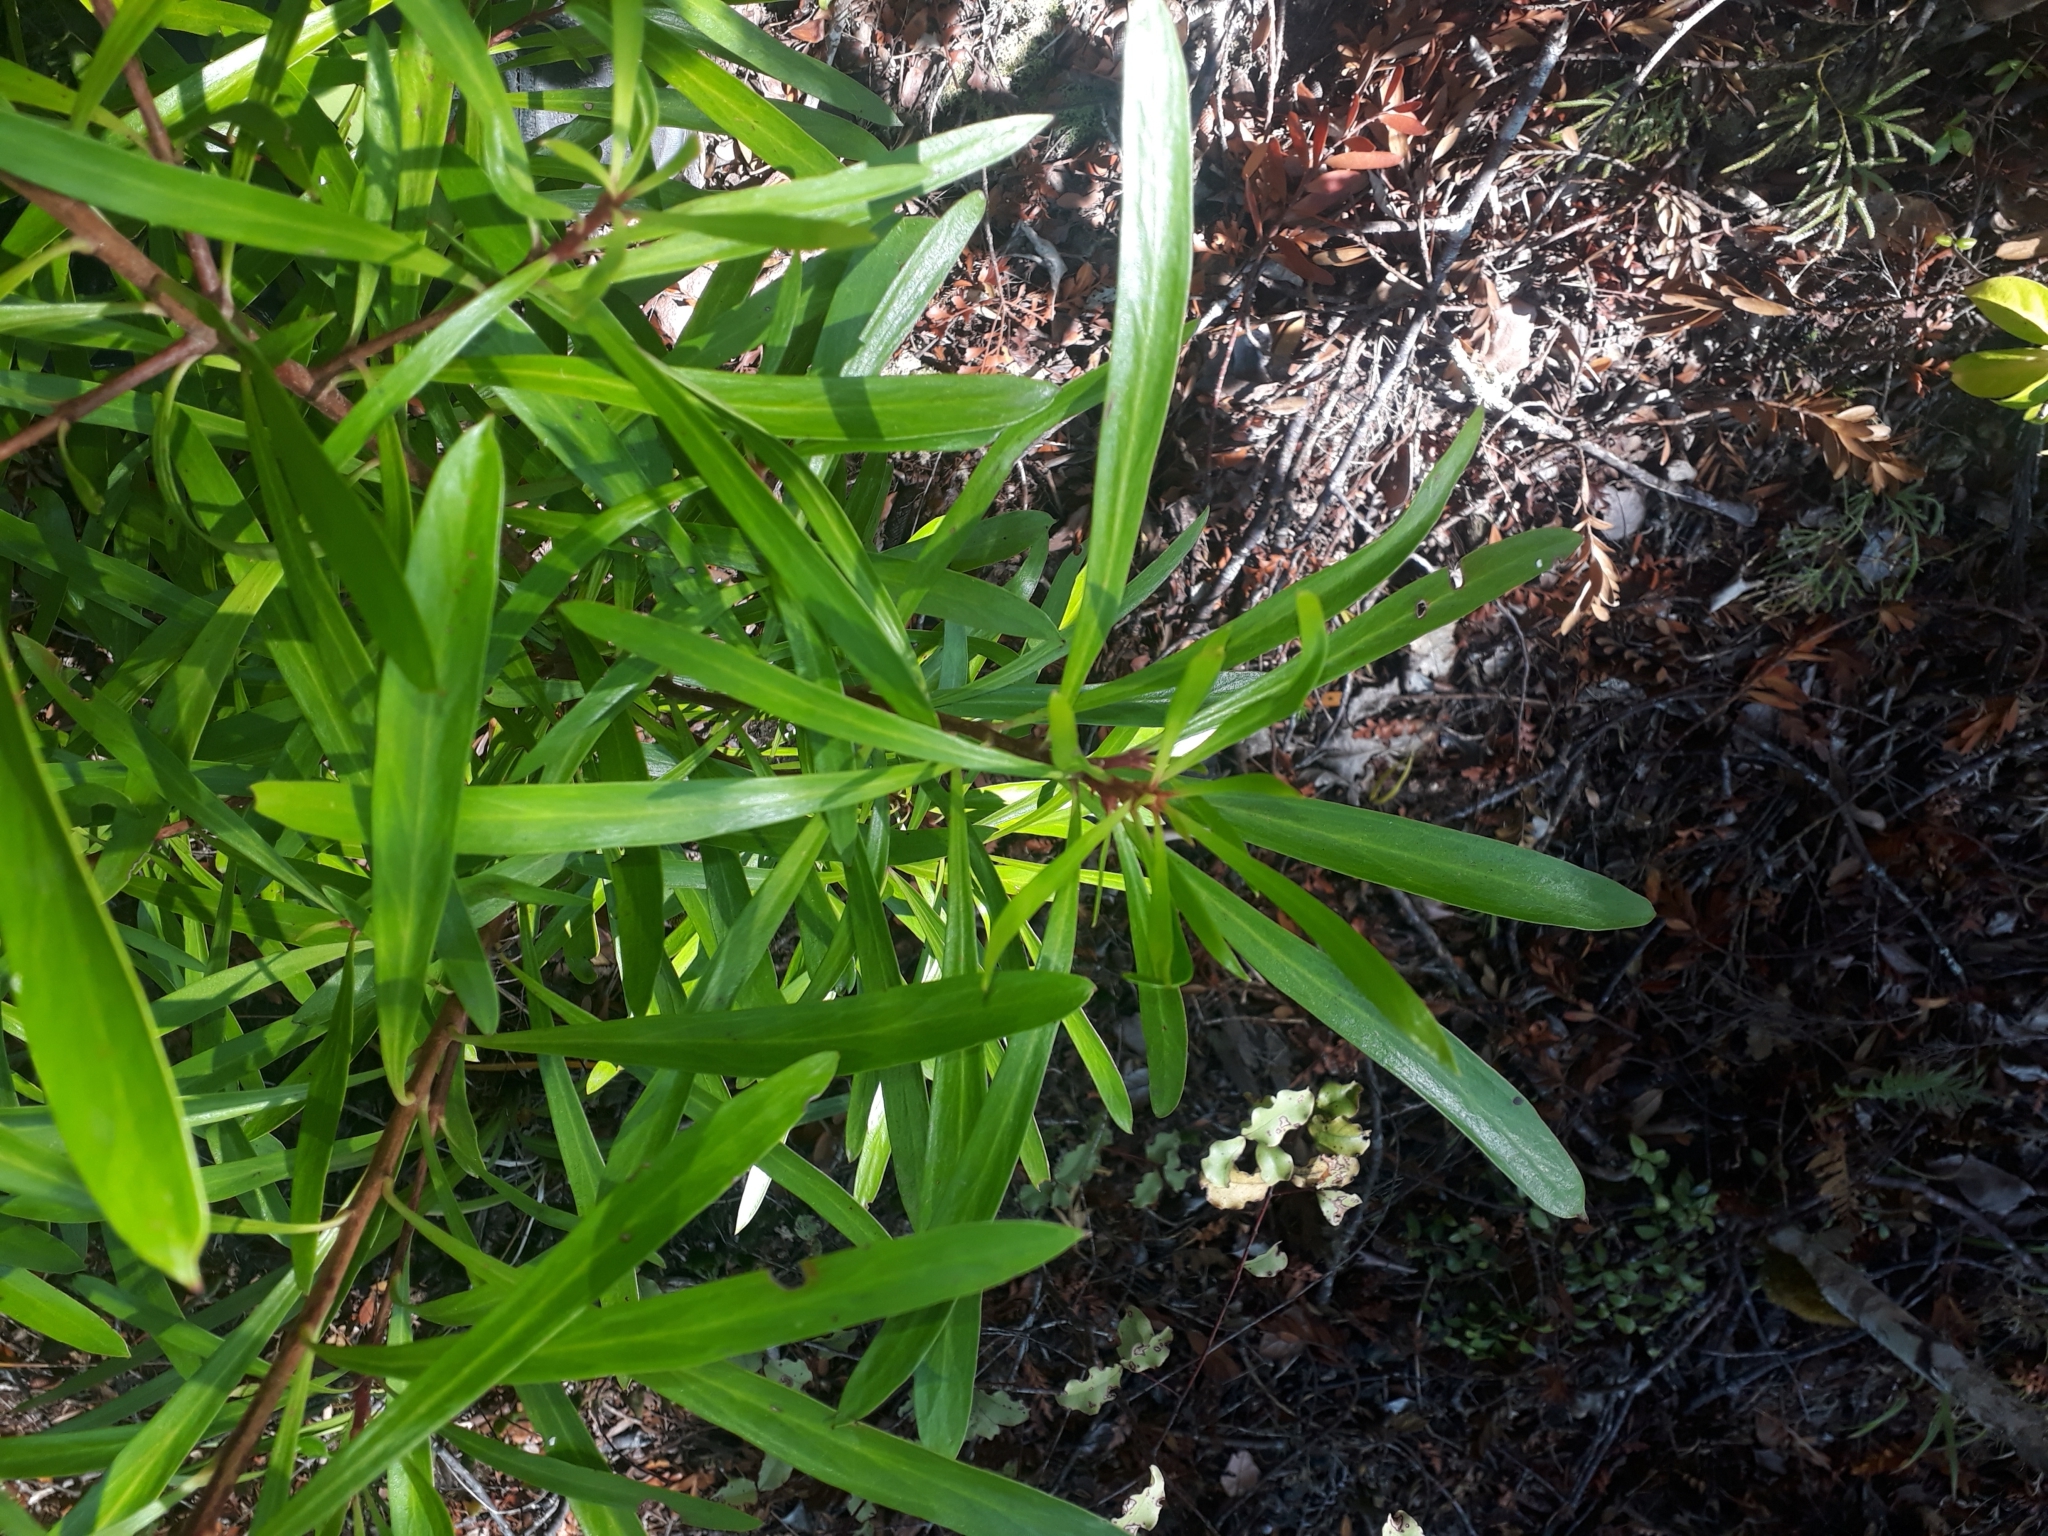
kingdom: Plantae
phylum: Tracheophyta
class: Magnoliopsida
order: Proteales
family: Proteaceae
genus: Toronia
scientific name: Toronia toru
